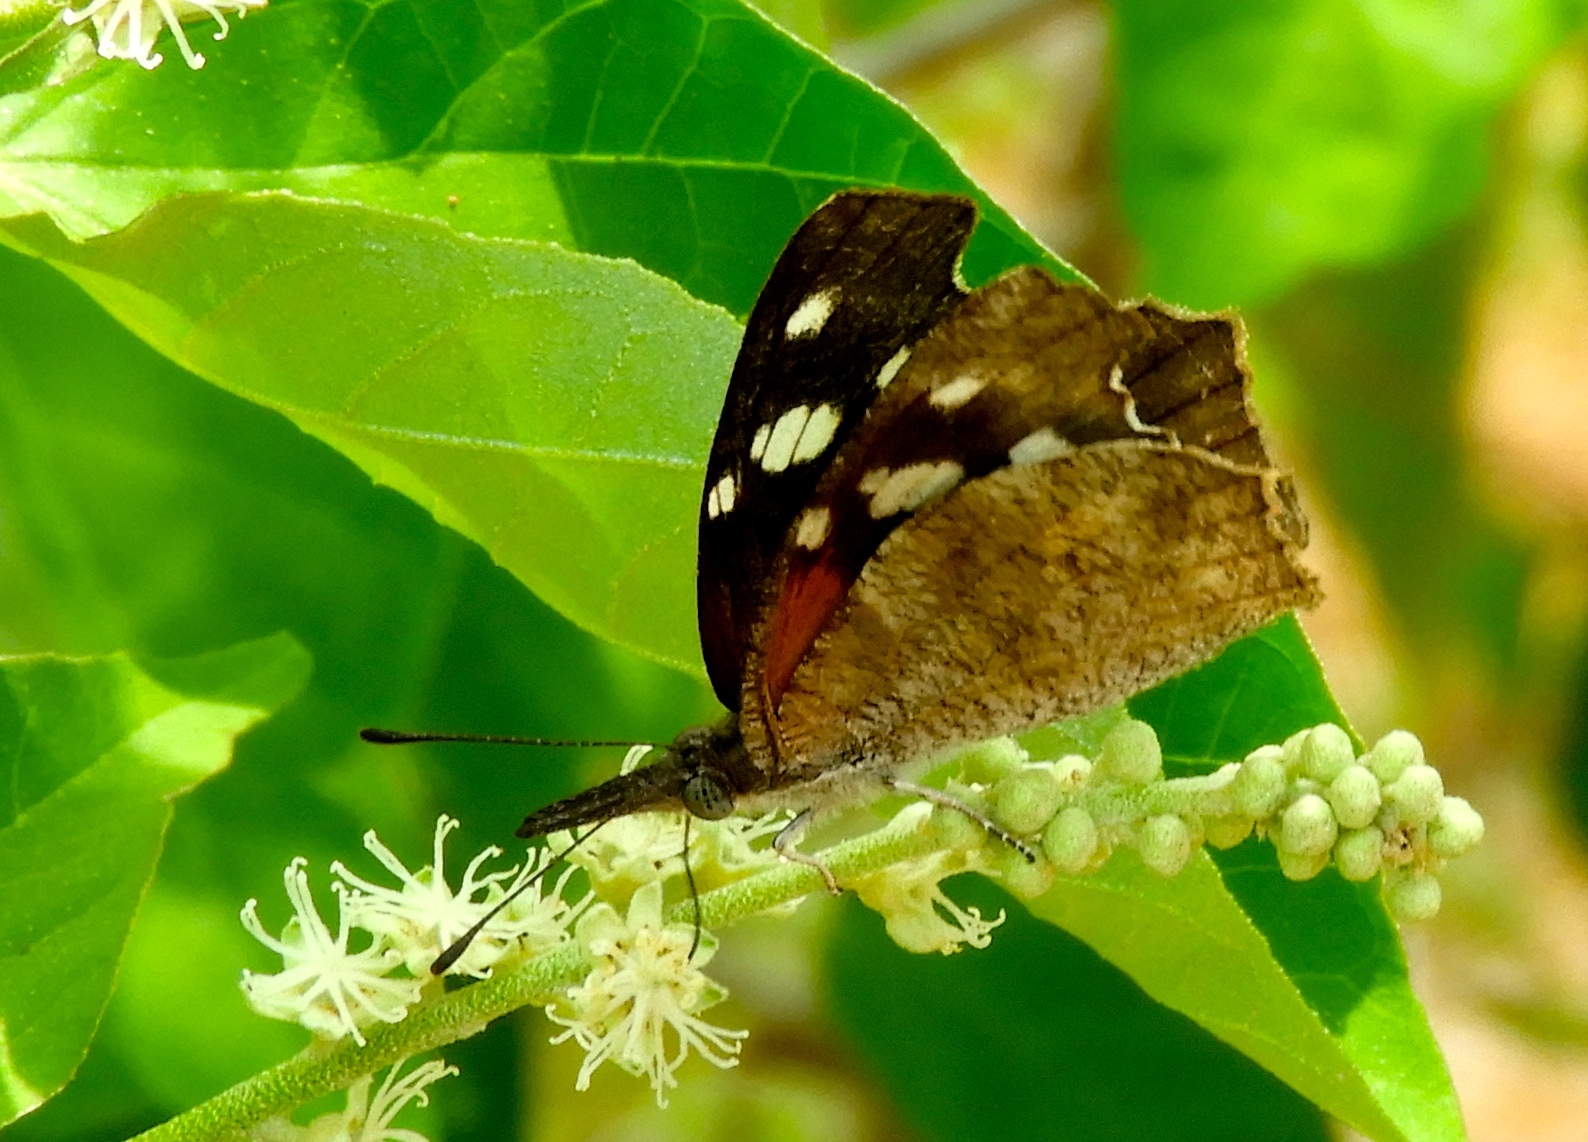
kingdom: Animalia
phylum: Arthropoda
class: Insecta
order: Lepidoptera
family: Nymphalidae
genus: Libytheana
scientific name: Libytheana carinenta
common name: American snout
